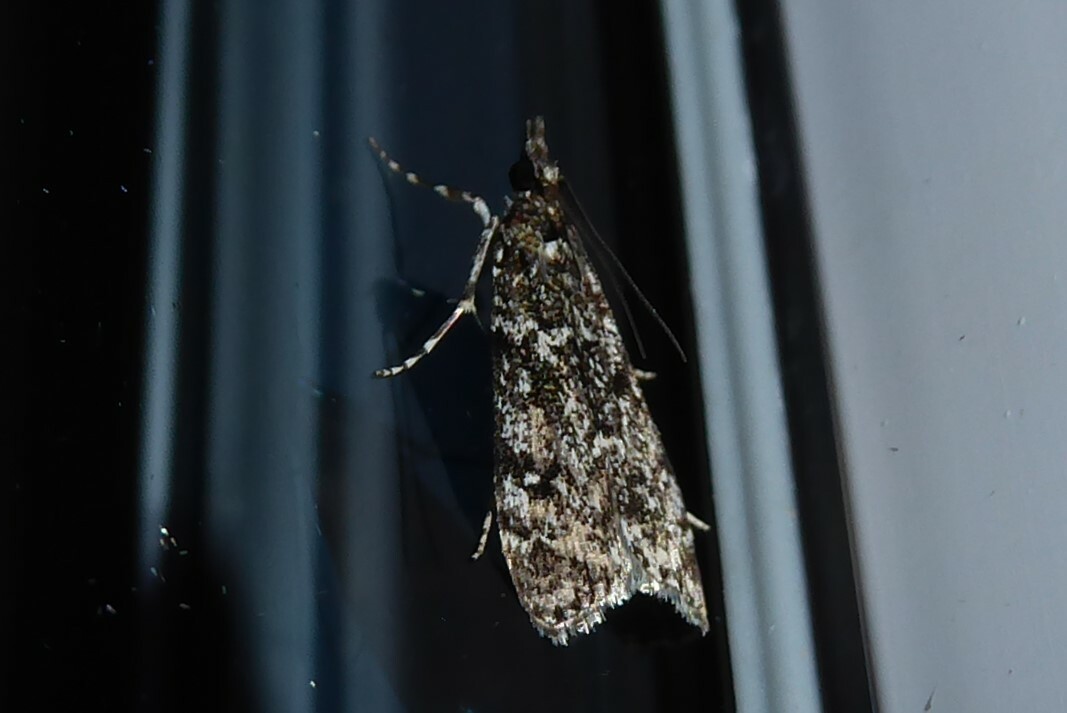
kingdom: Animalia
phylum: Arthropoda
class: Insecta
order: Lepidoptera
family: Crambidae
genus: Eudonia
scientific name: Eudonia philerga
